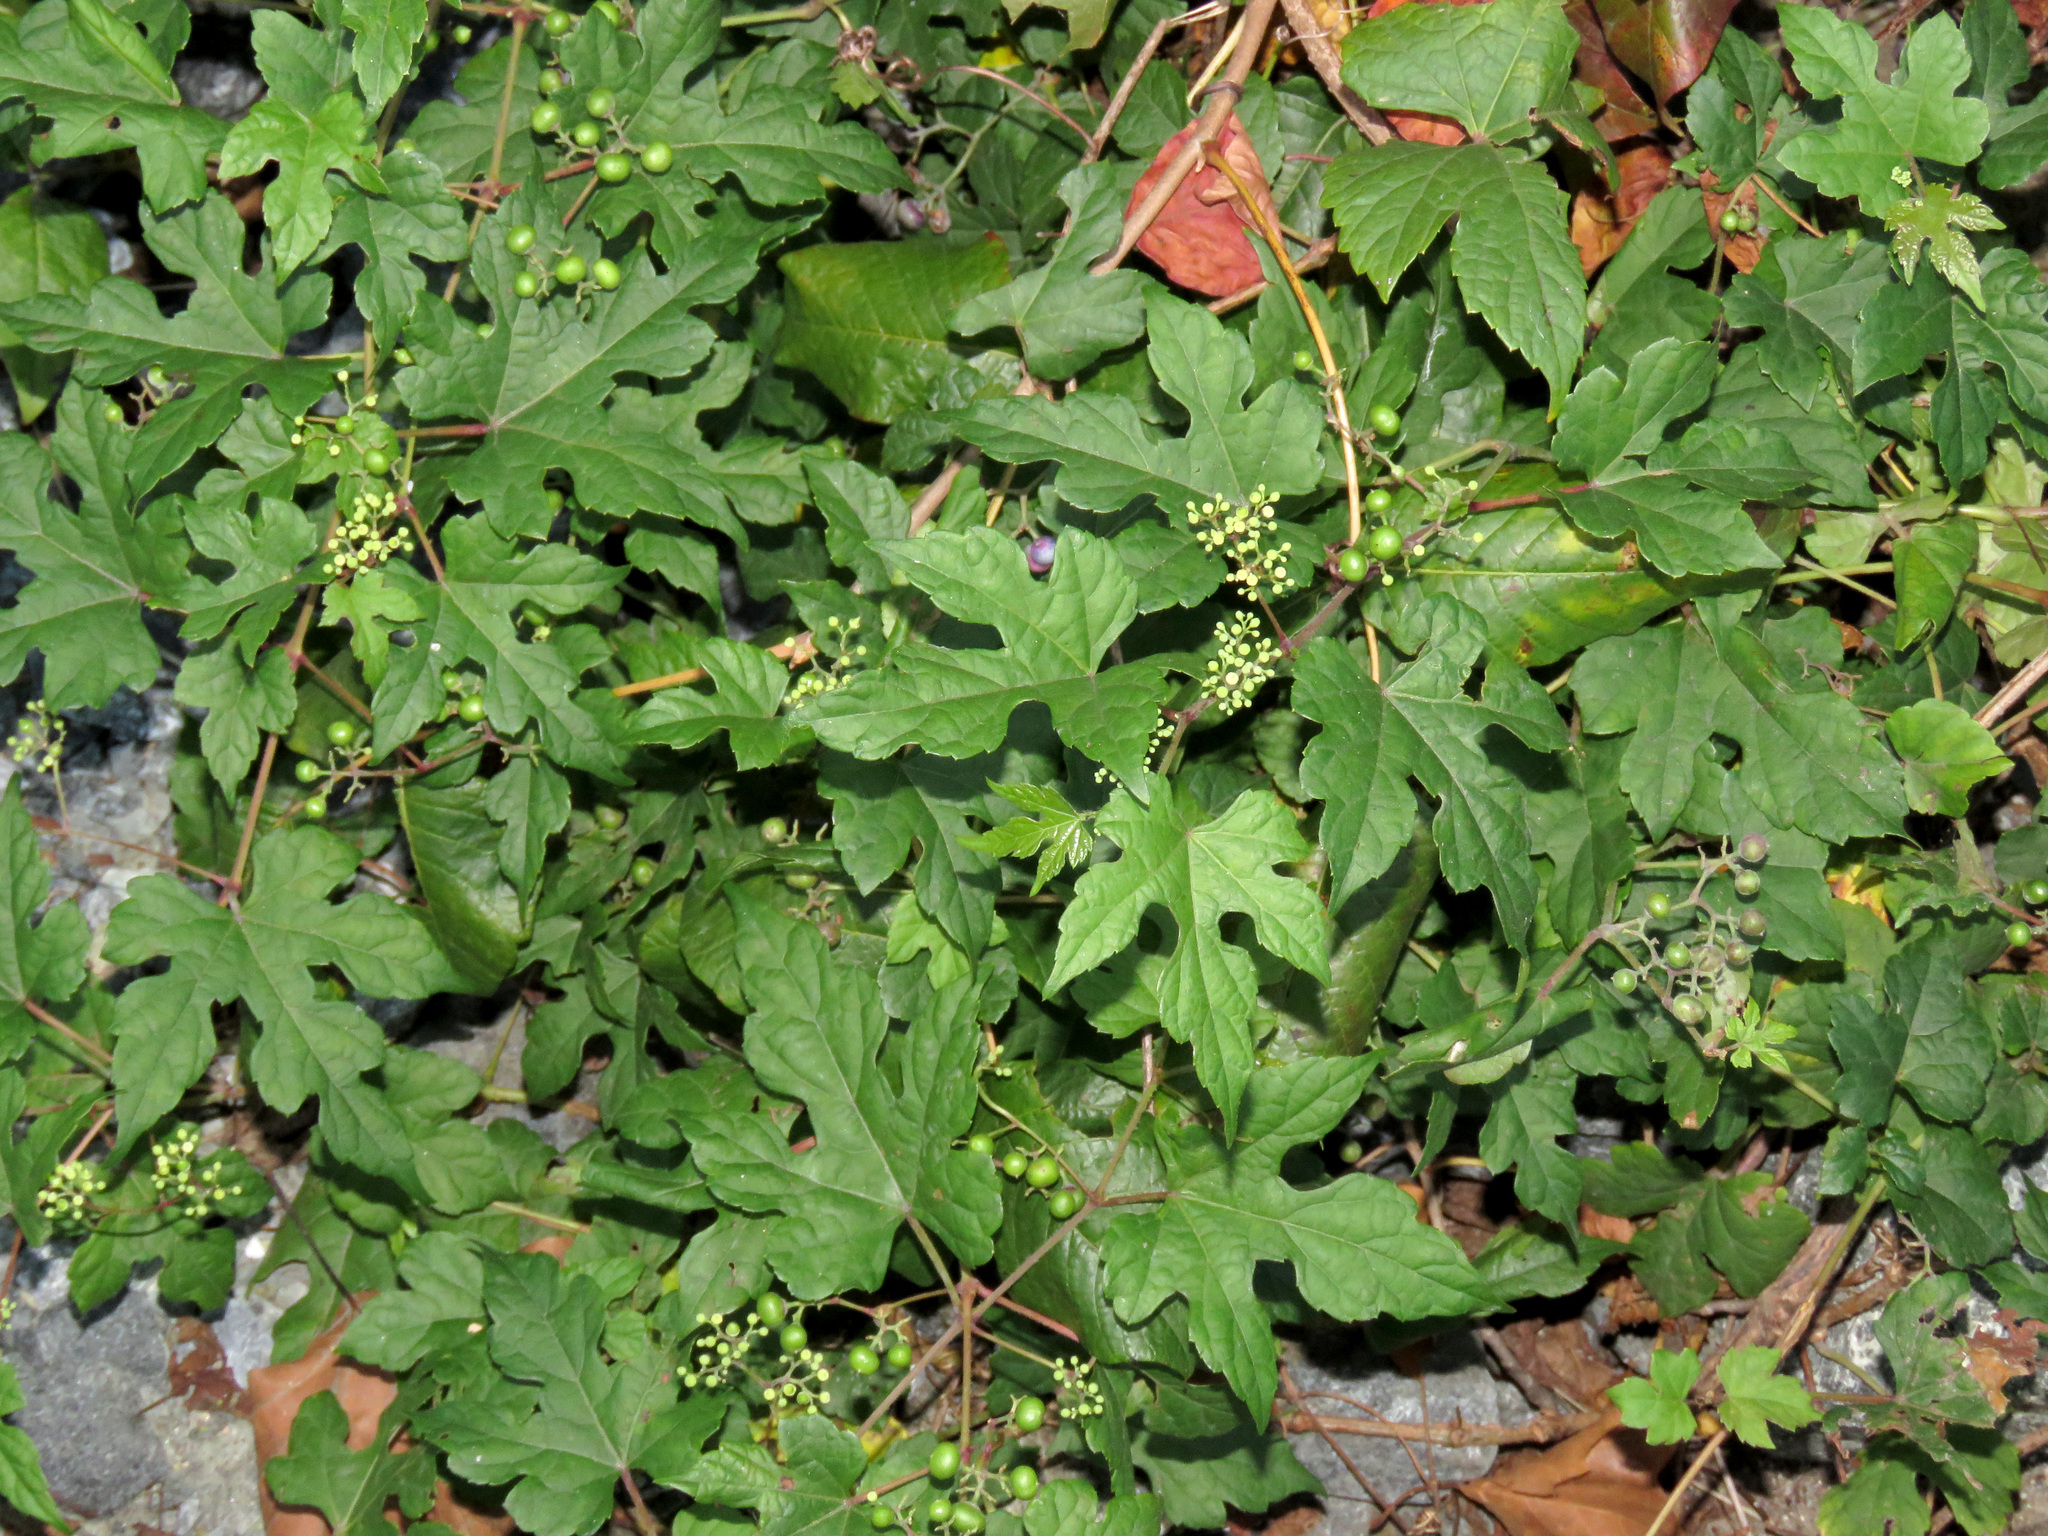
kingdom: Plantae
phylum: Tracheophyta
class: Magnoliopsida
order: Vitales
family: Vitaceae
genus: Ampelopsis
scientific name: Ampelopsis glandulosa
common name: Amur peppervine
